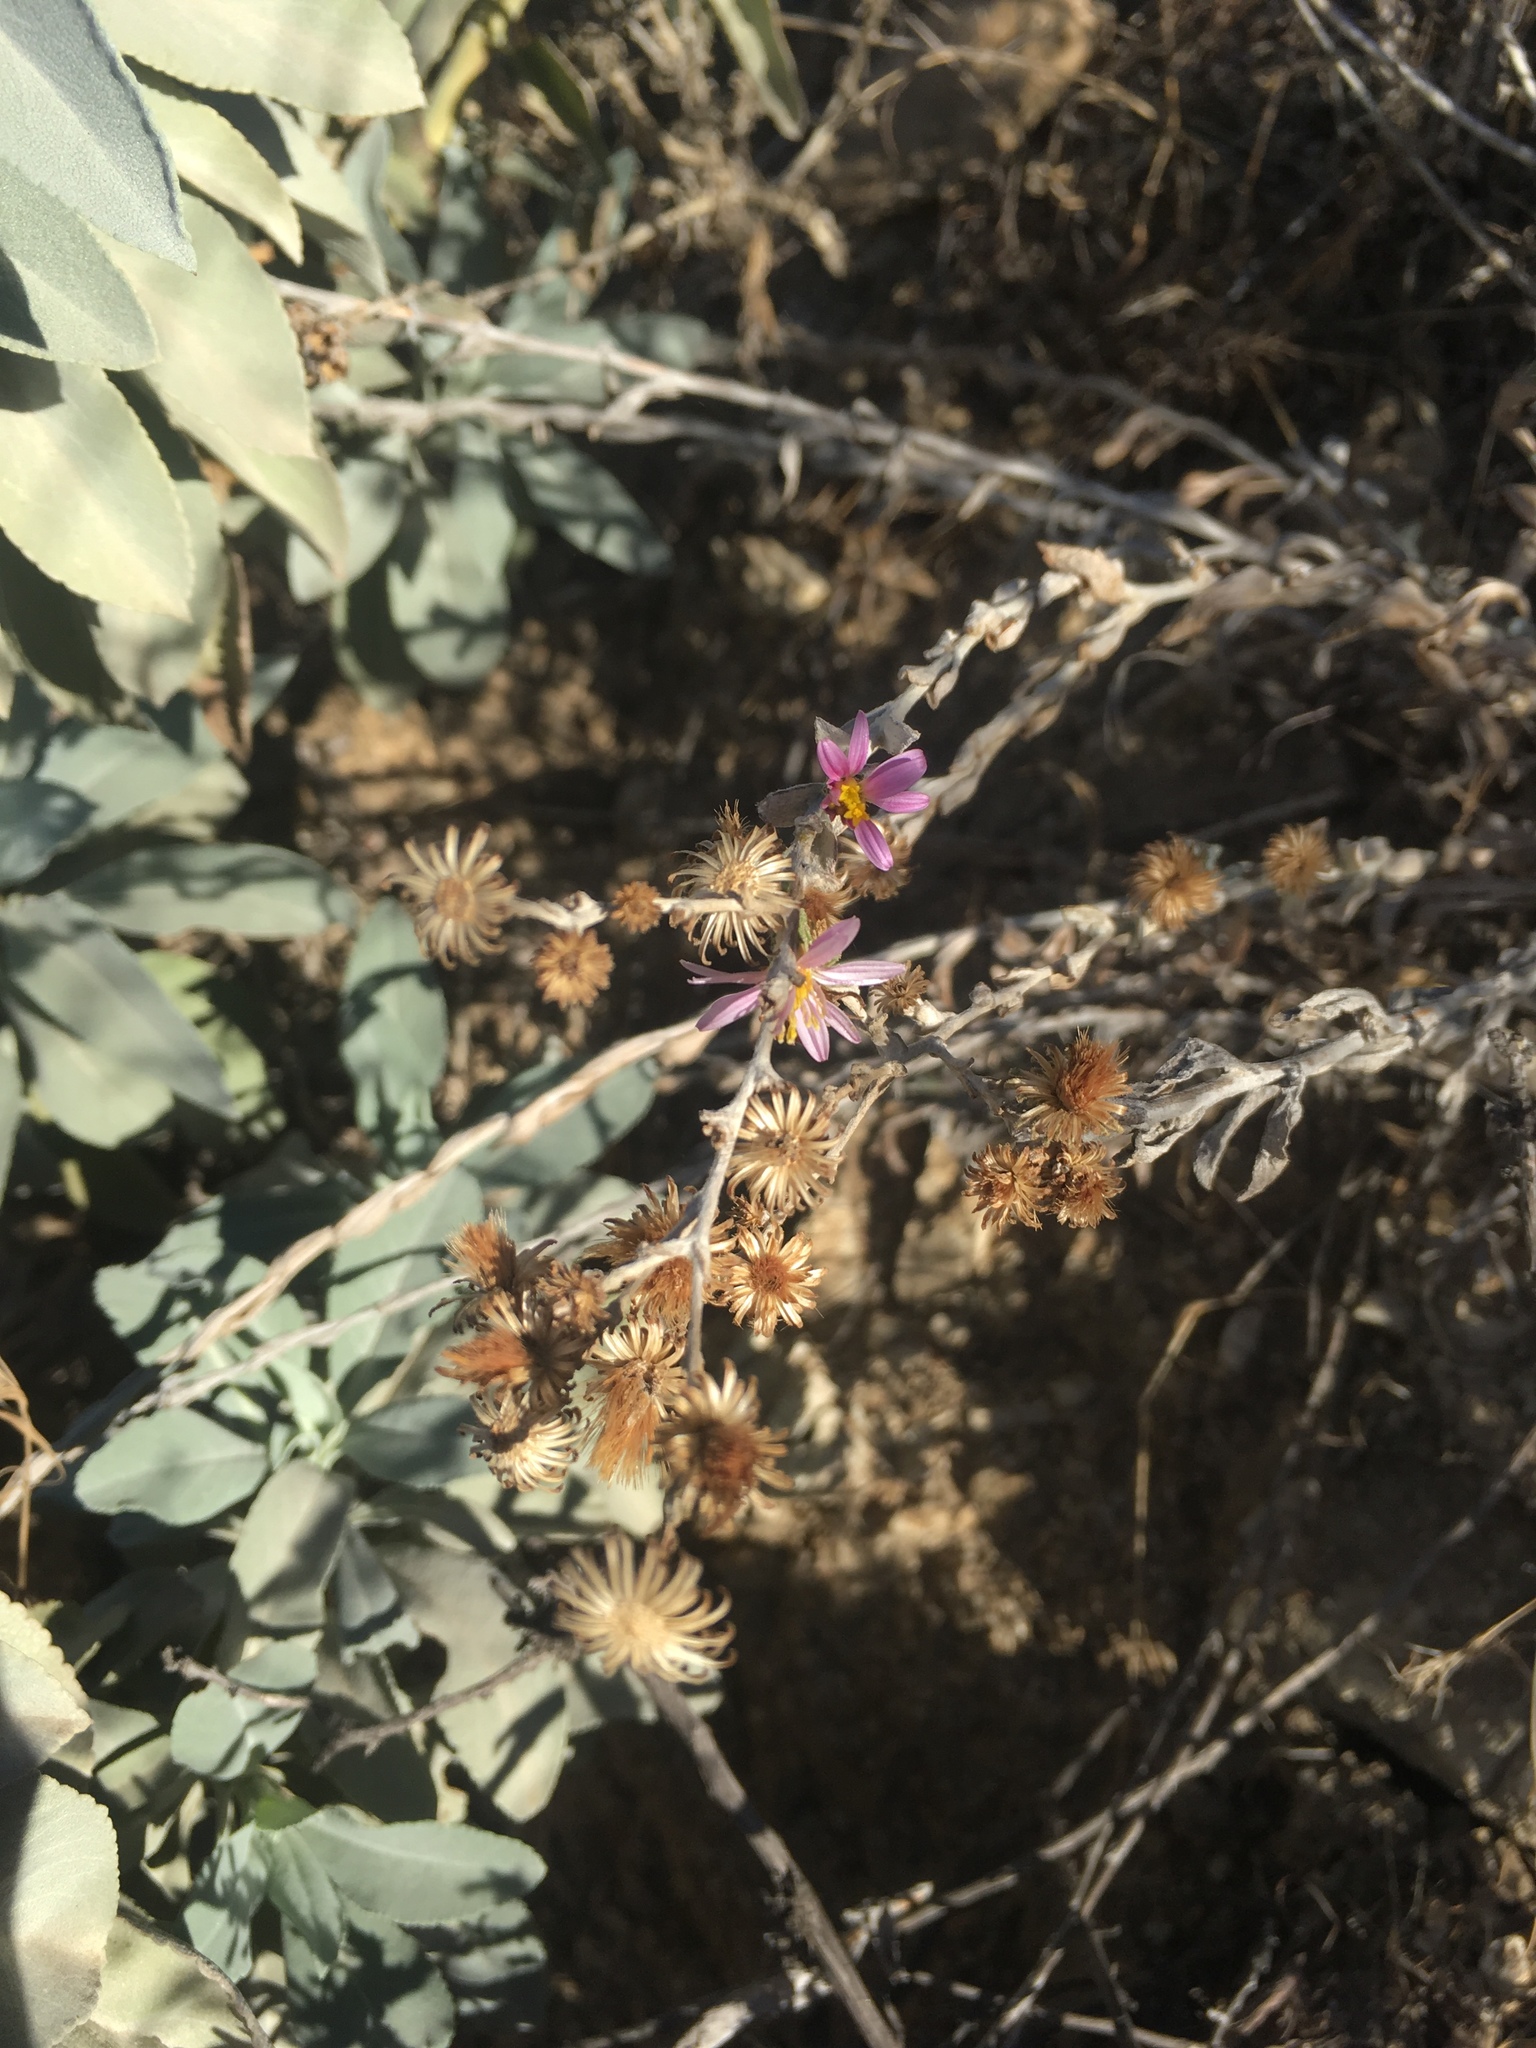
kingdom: Plantae
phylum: Tracheophyta
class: Magnoliopsida
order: Asterales
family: Asteraceae
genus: Corethrogyne
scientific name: Corethrogyne filaginifolia
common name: Sand-aster
